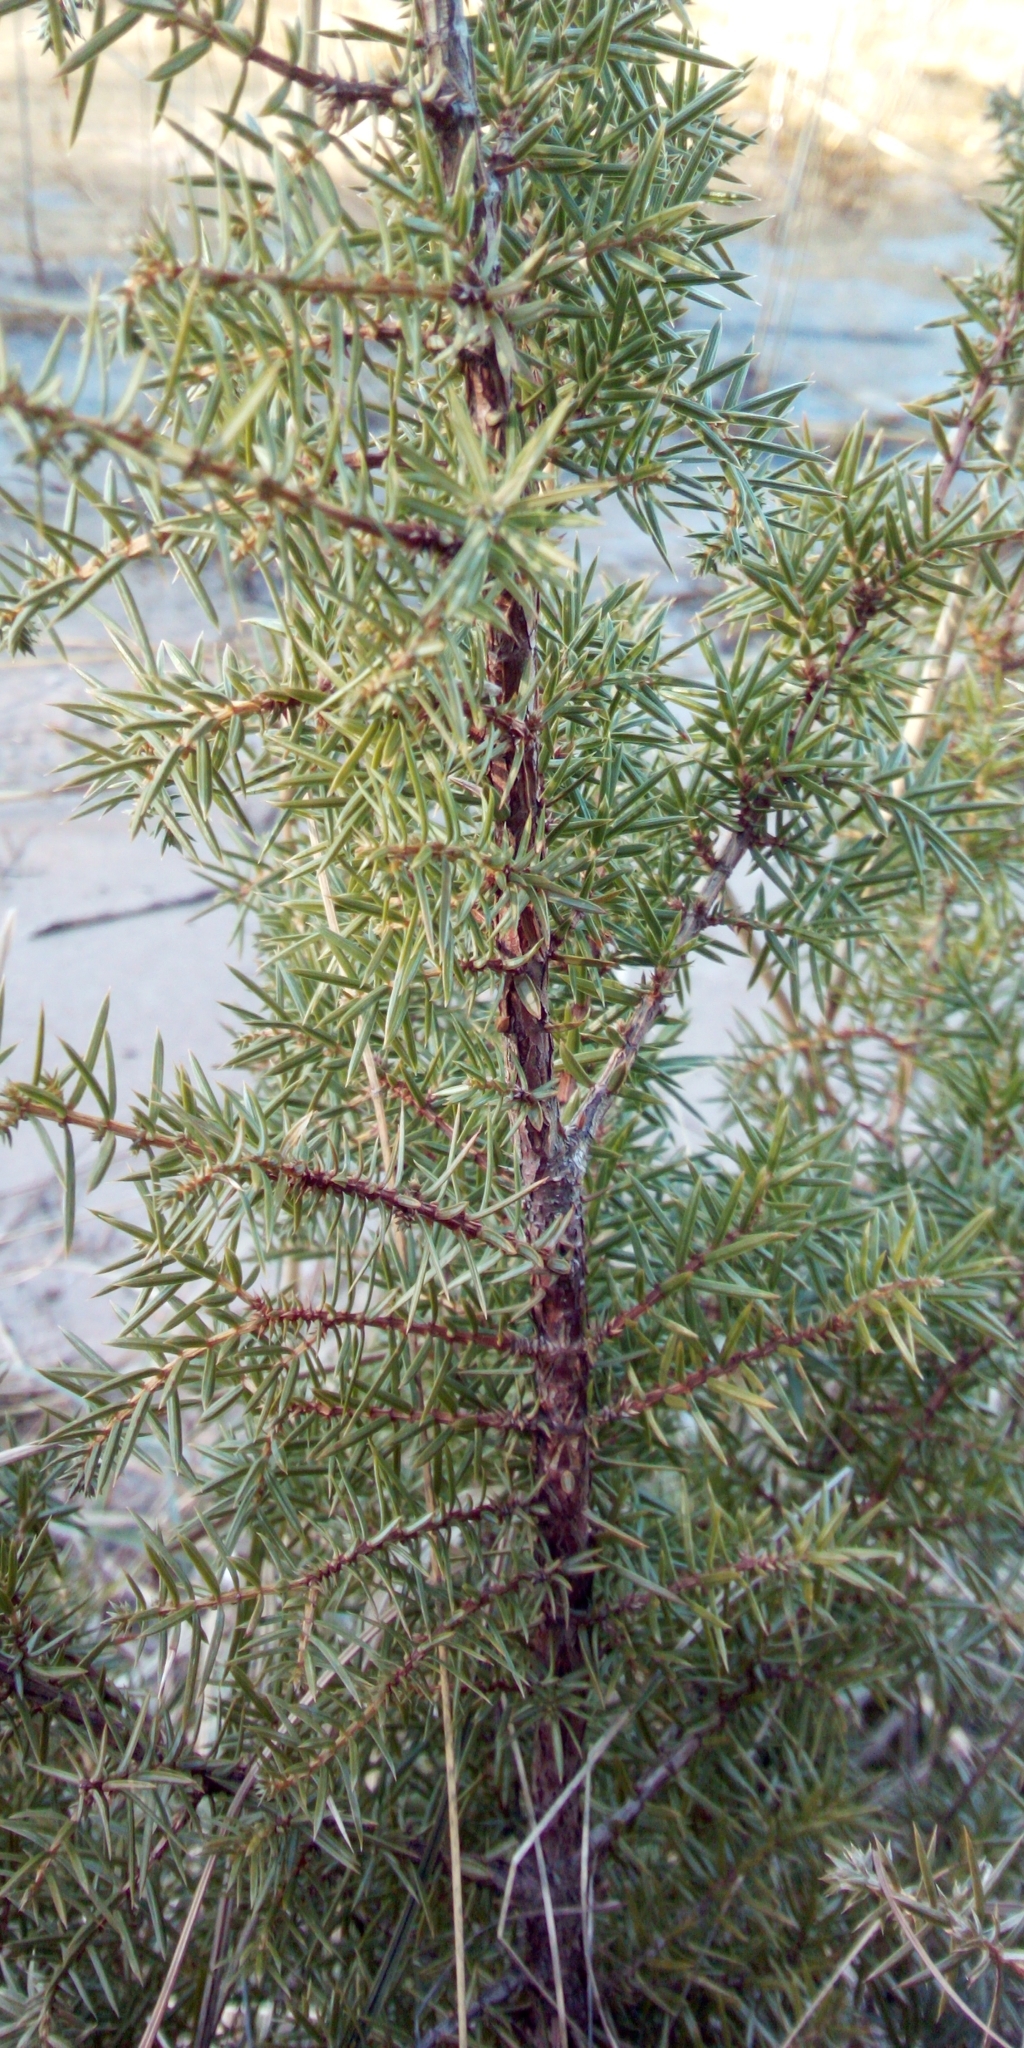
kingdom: Plantae
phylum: Tracheophyta
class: Pinopsida
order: Pinales
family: Cupressaceae
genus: Juniperus
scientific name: Juniperus communis
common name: Common juniper
